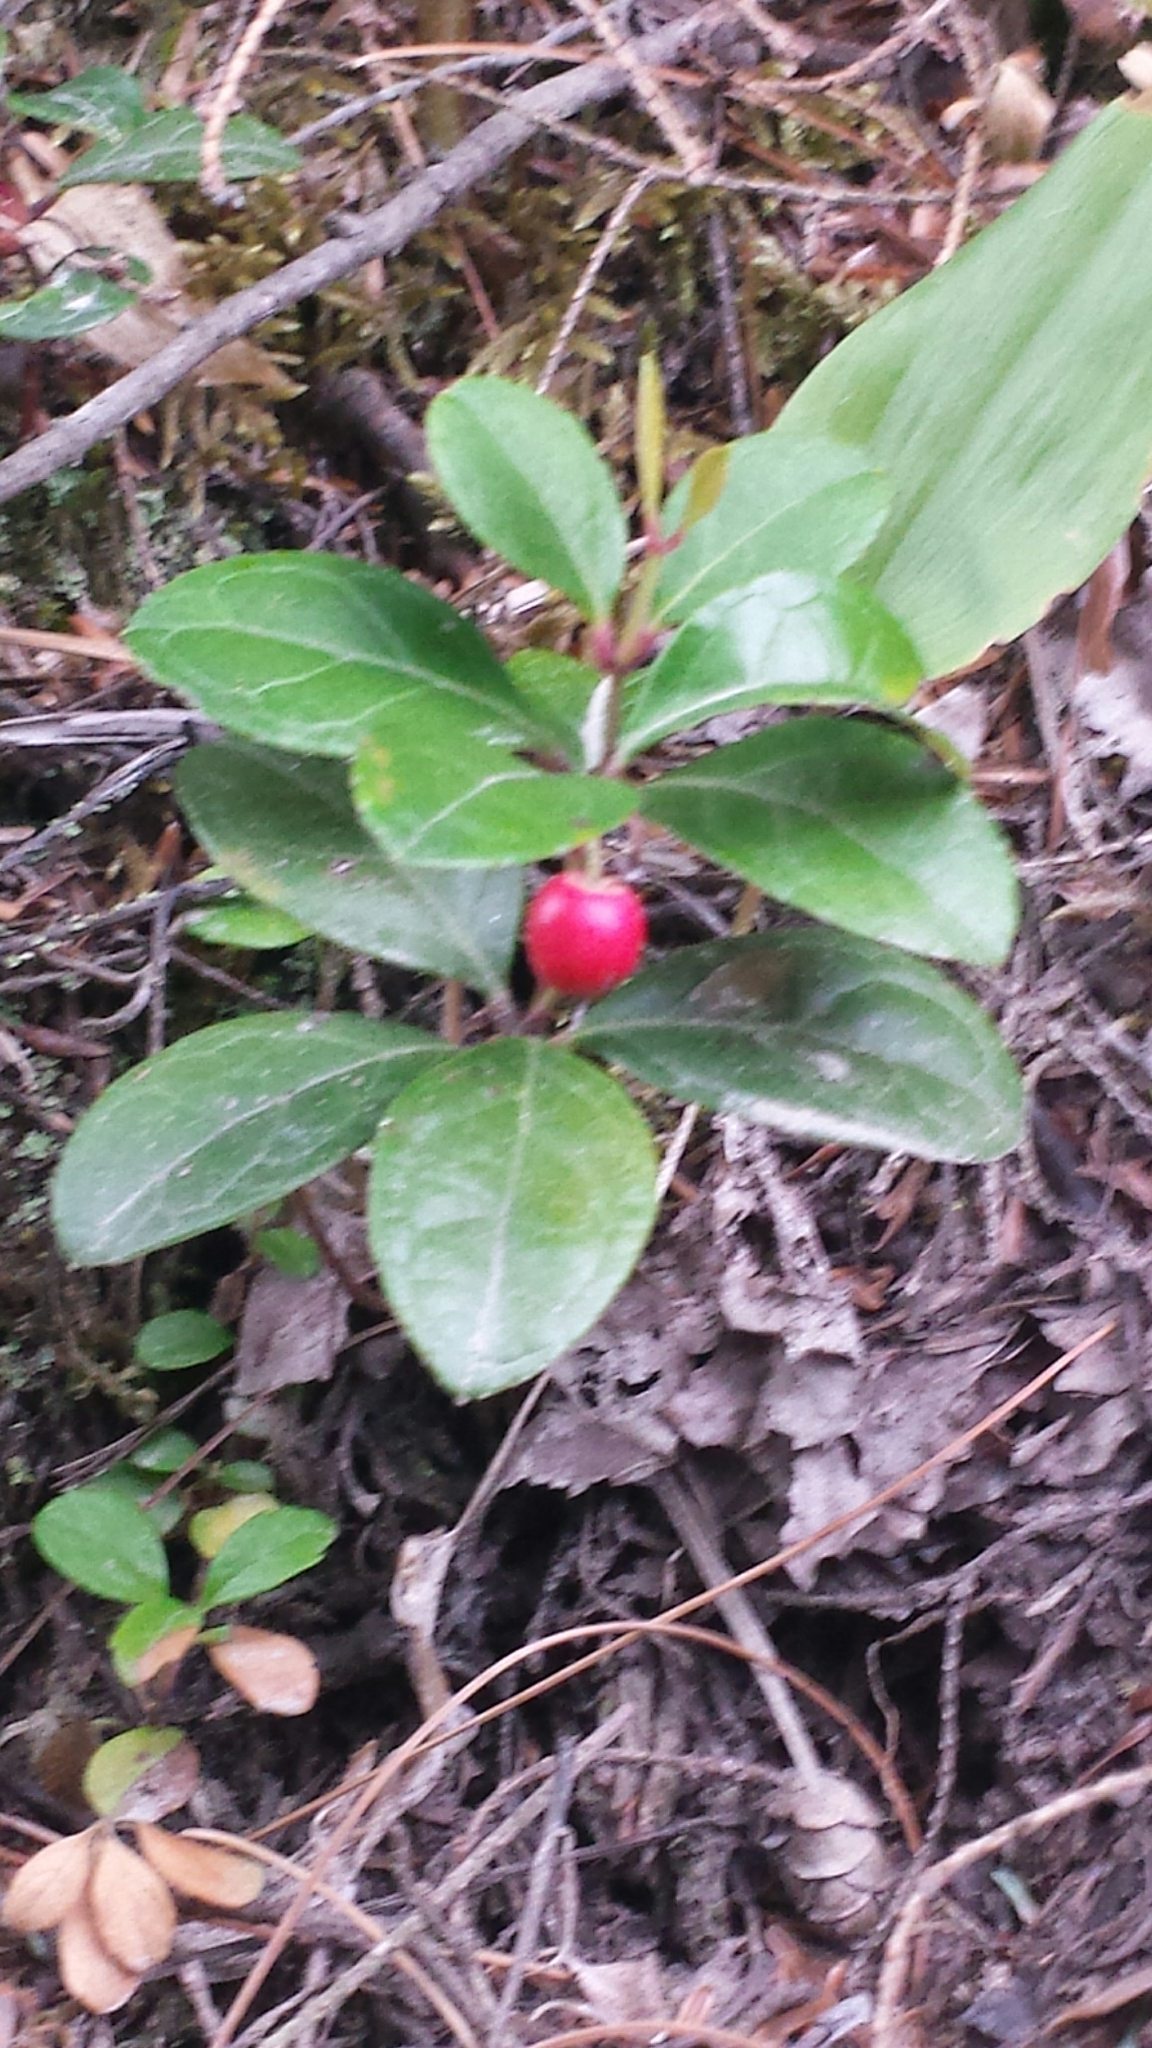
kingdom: Plantae
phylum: Tracheophyta
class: Magnoliopsida
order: Ericales
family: Ericaceae
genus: Gaultheria
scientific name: Gaultheria procumbens
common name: Checkerberry
